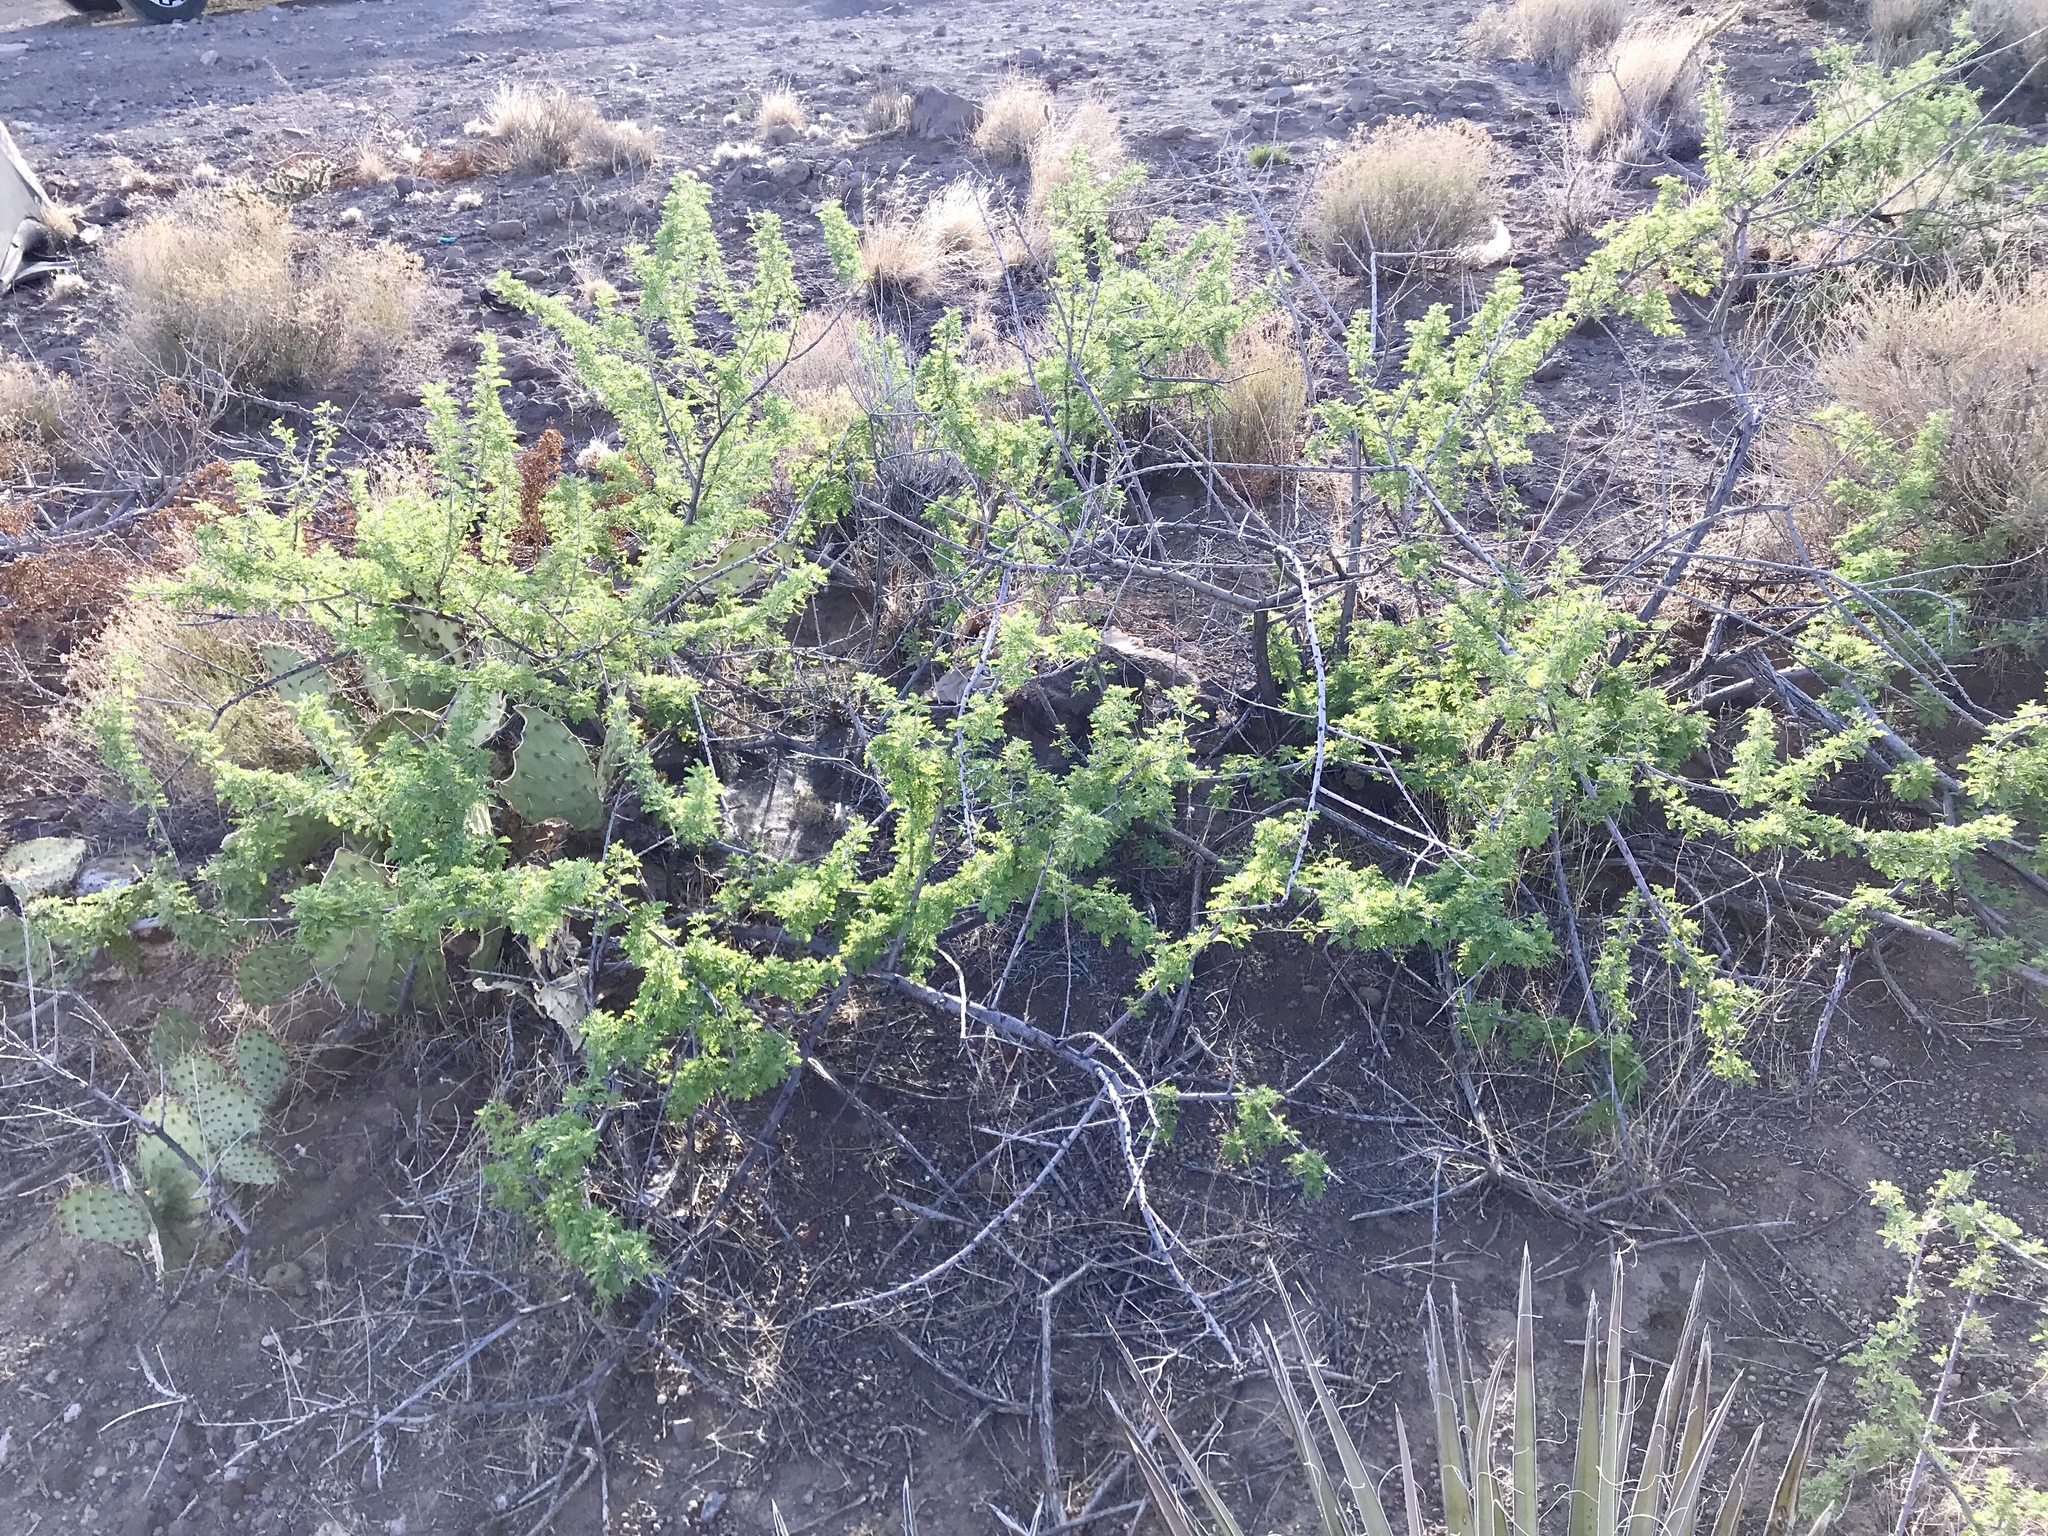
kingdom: Plantae
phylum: Tracheophyta
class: Magnoliopsida
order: Fabales
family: Fabaceae
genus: Senegalia
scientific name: Senegalia greggii
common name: Texas-mimosa
